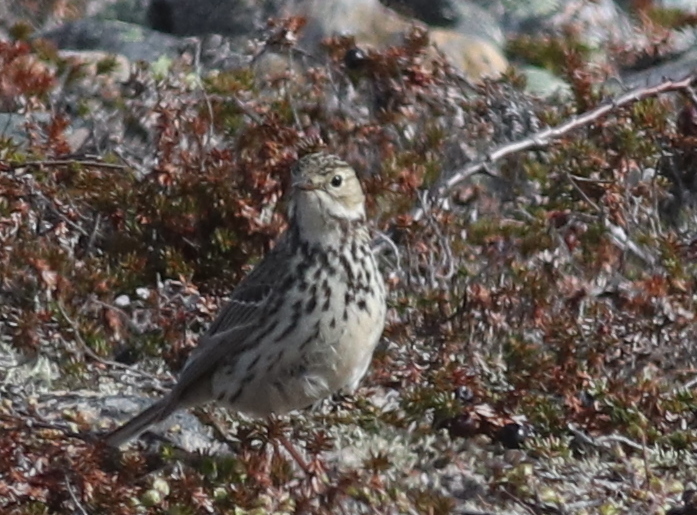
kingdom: Animalia
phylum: Chordata
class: Aves
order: Passeriformes
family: Motacillidae
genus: Anthus
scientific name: Anthus pratensis
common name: Meadow pipit
